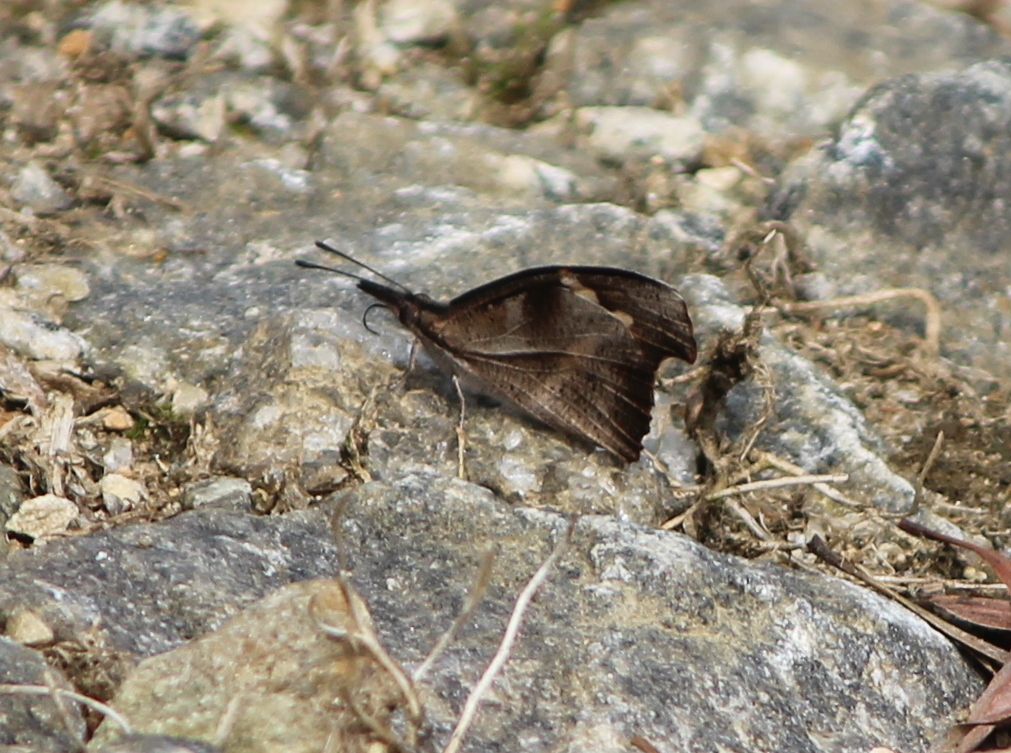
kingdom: Animalia
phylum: Arthropoda
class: Insecta
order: Lepidoptera
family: Nymphalidae
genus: Libythea
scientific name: Libythea myrrha
